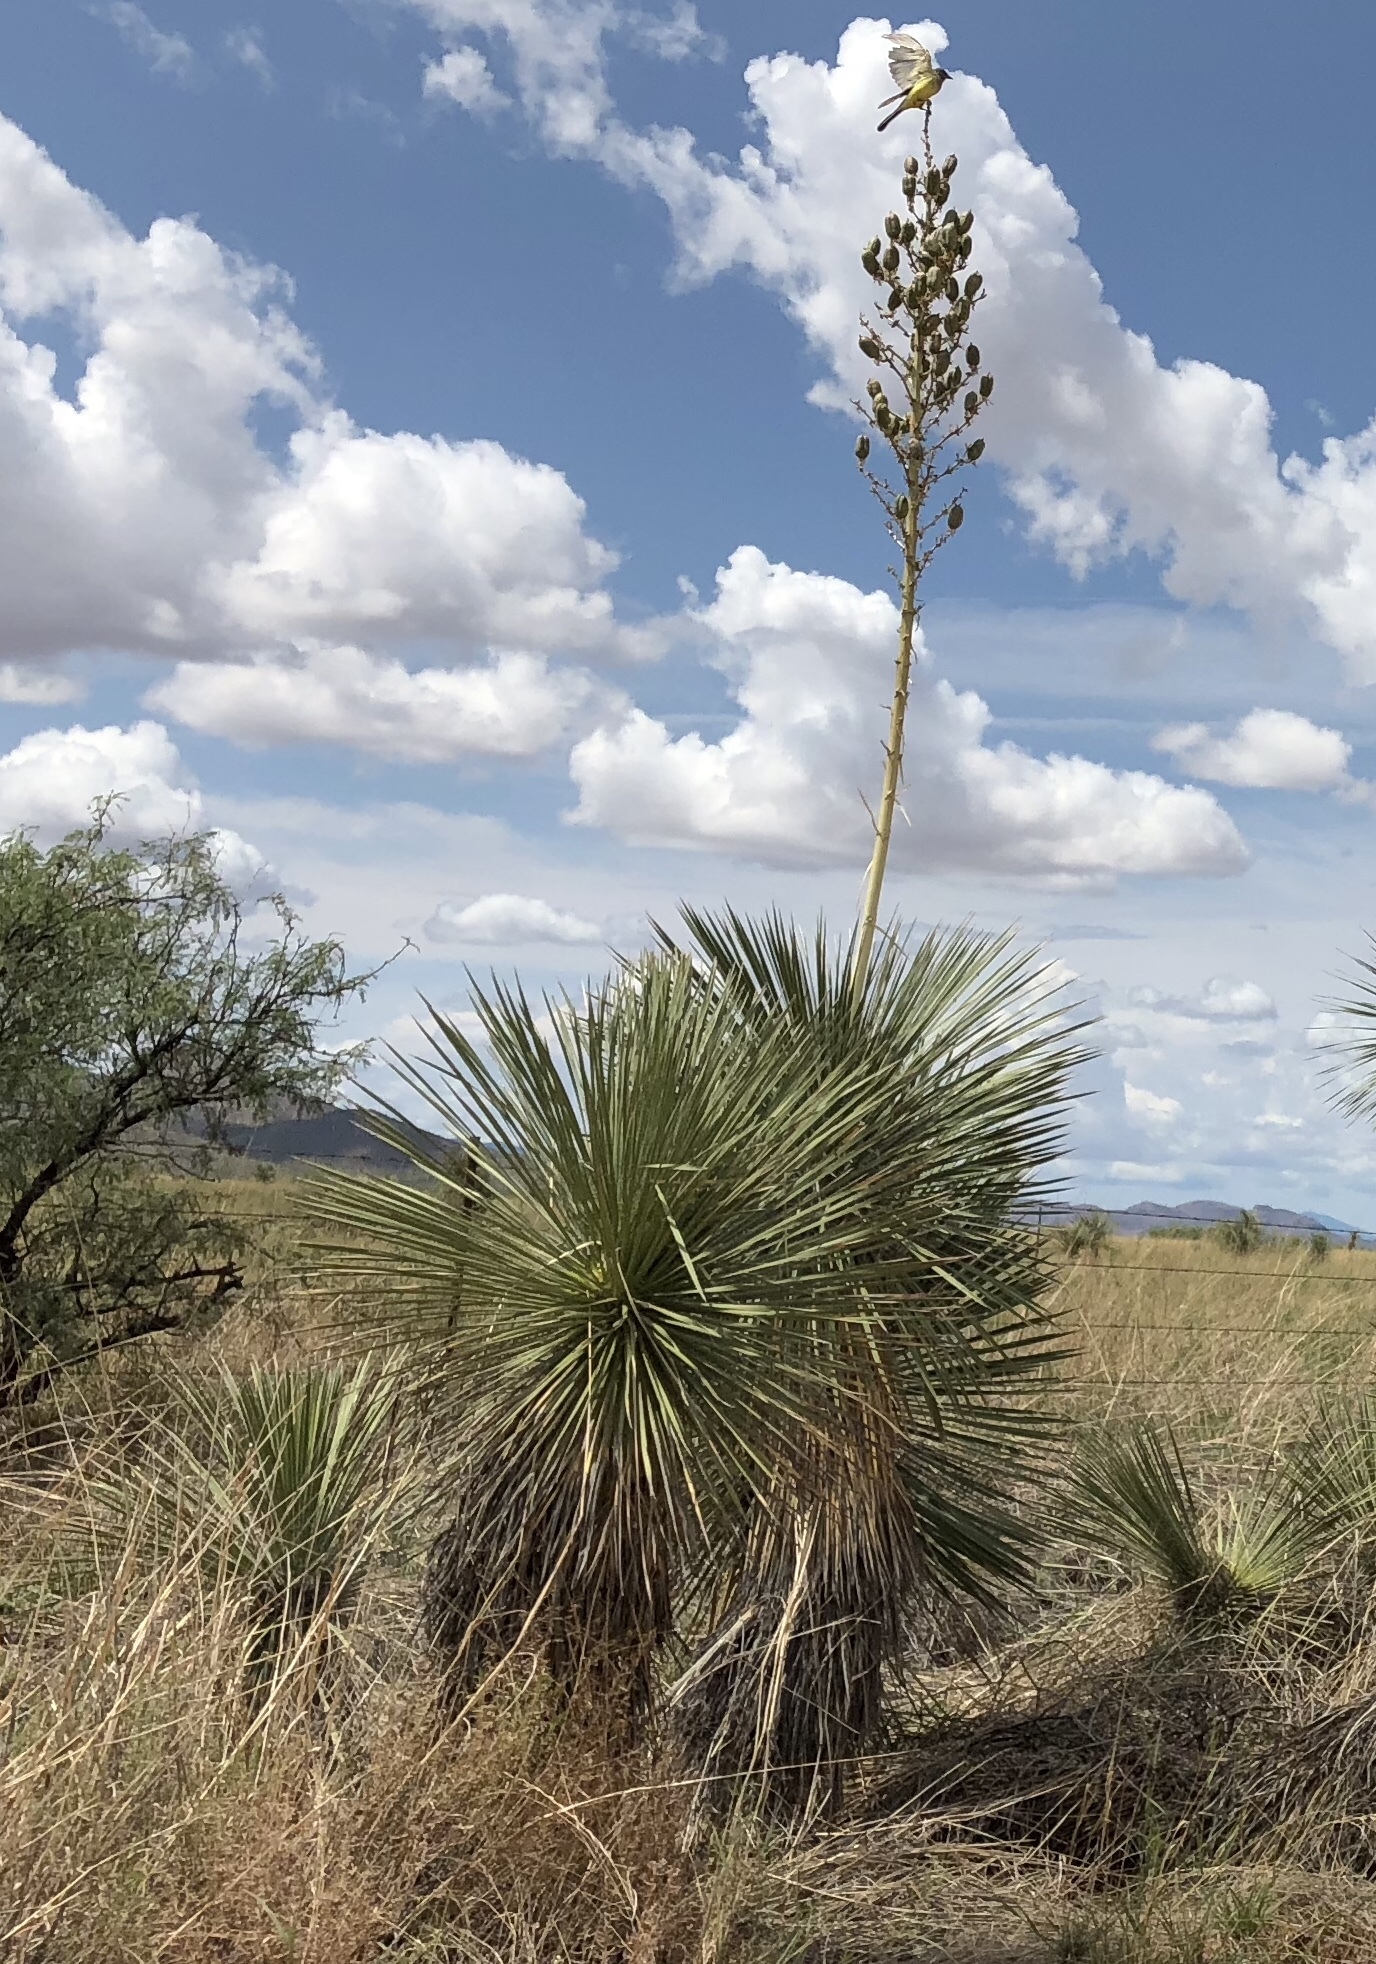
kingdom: Plantae
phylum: Tracheophyta
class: Liliopsida
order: Asparagales
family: Asparagaceae
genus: Yucca
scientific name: Yucca elata
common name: Palmella
